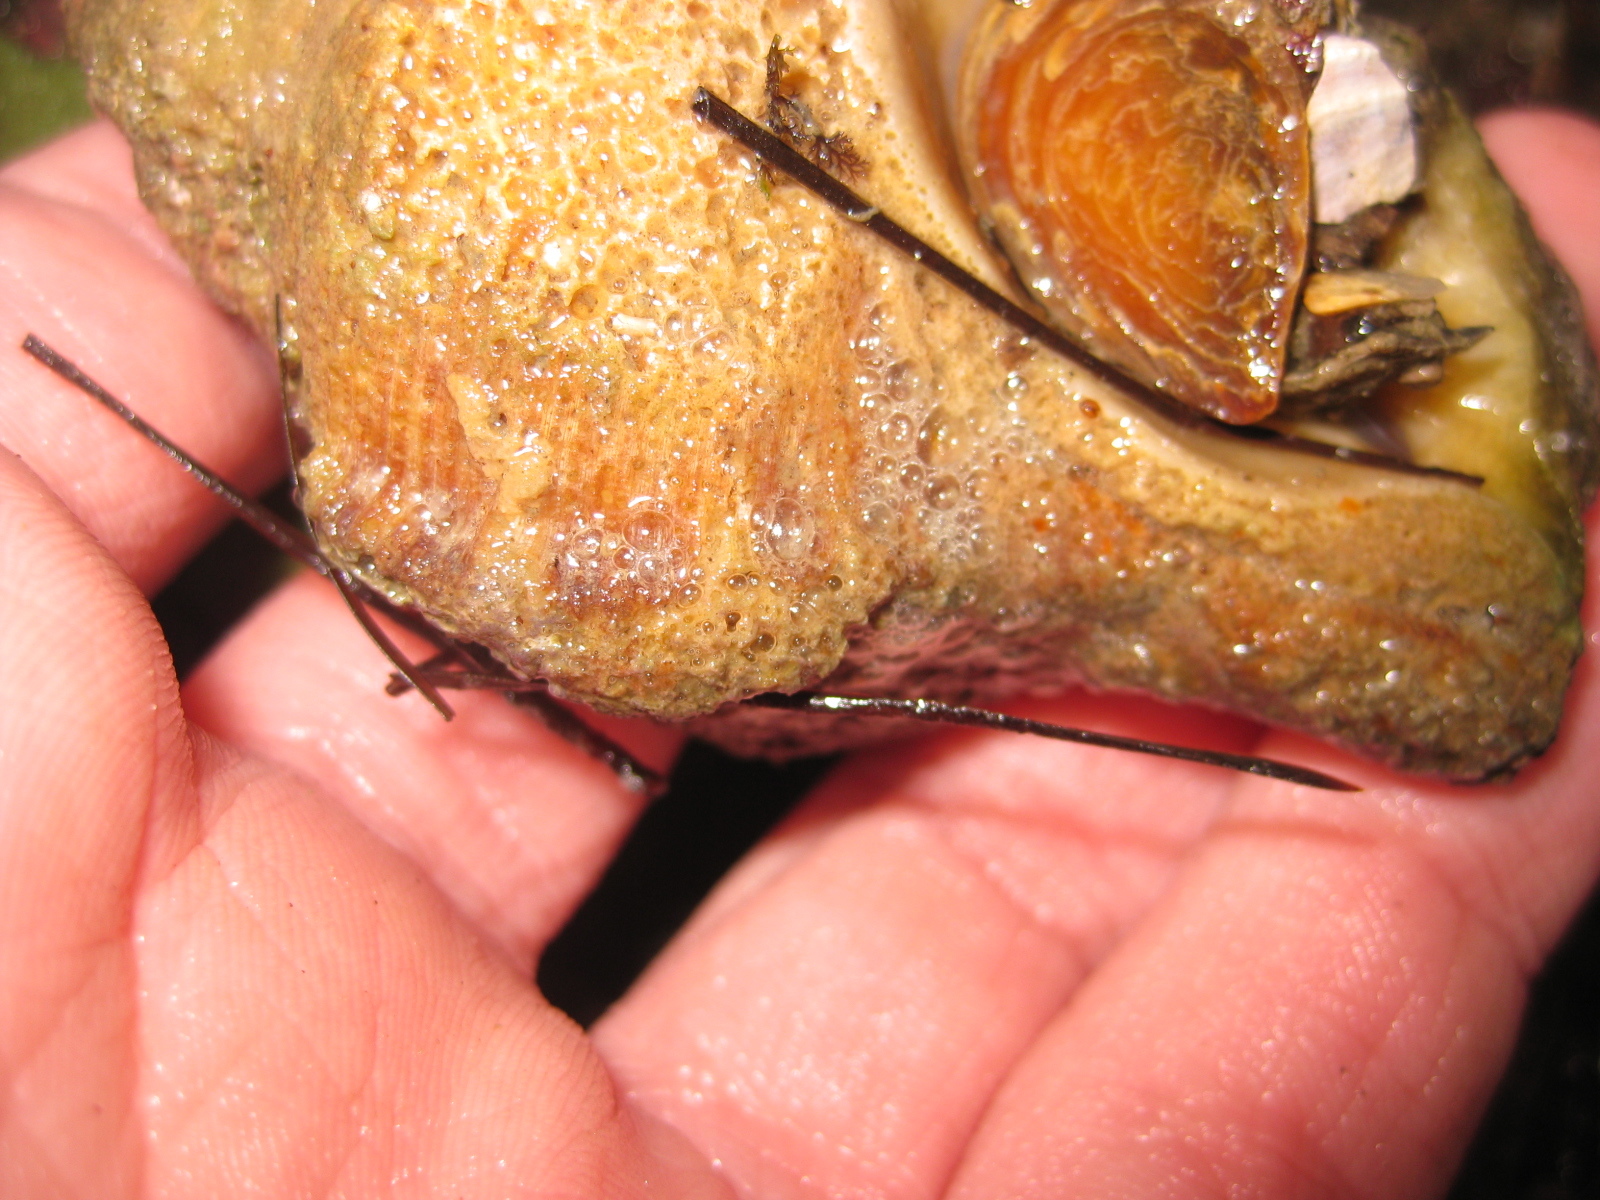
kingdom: Animalia
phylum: Mollusca
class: Gastropoda
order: Littorinimorpha
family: Ranellidae
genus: Ranella
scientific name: Ranella australasia
